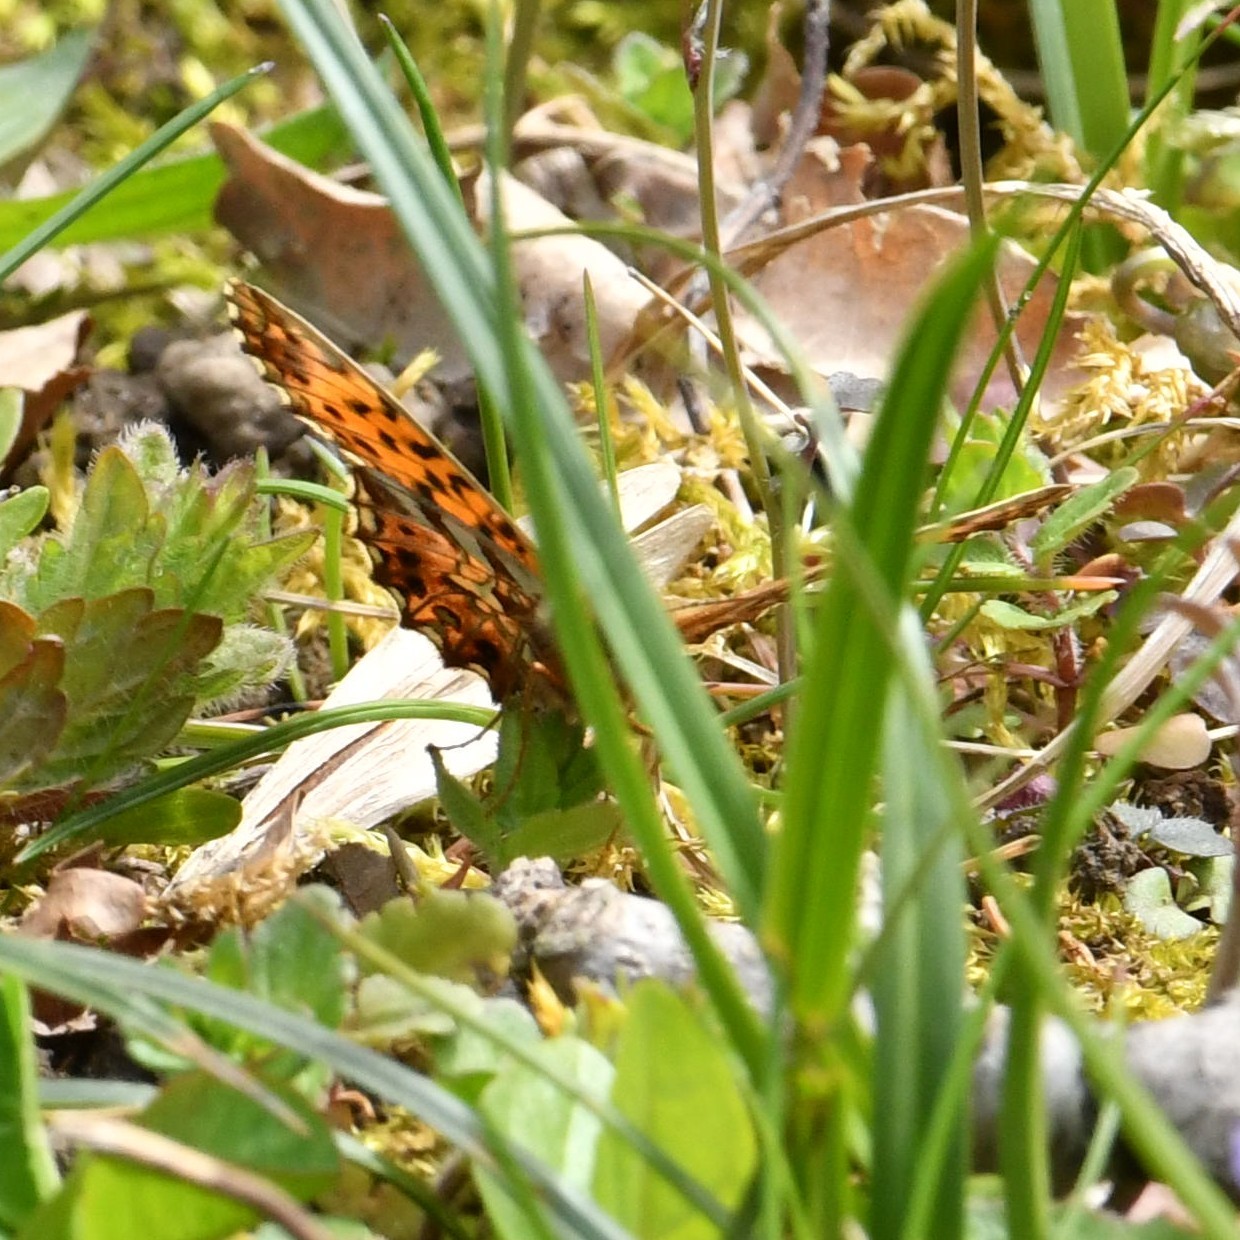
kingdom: Animalia
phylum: Arthropoda
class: Insecta
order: Lepidoptera
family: Nymphalidae
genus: Boloria
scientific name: Boloria dia
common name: Weaver's fritillary
